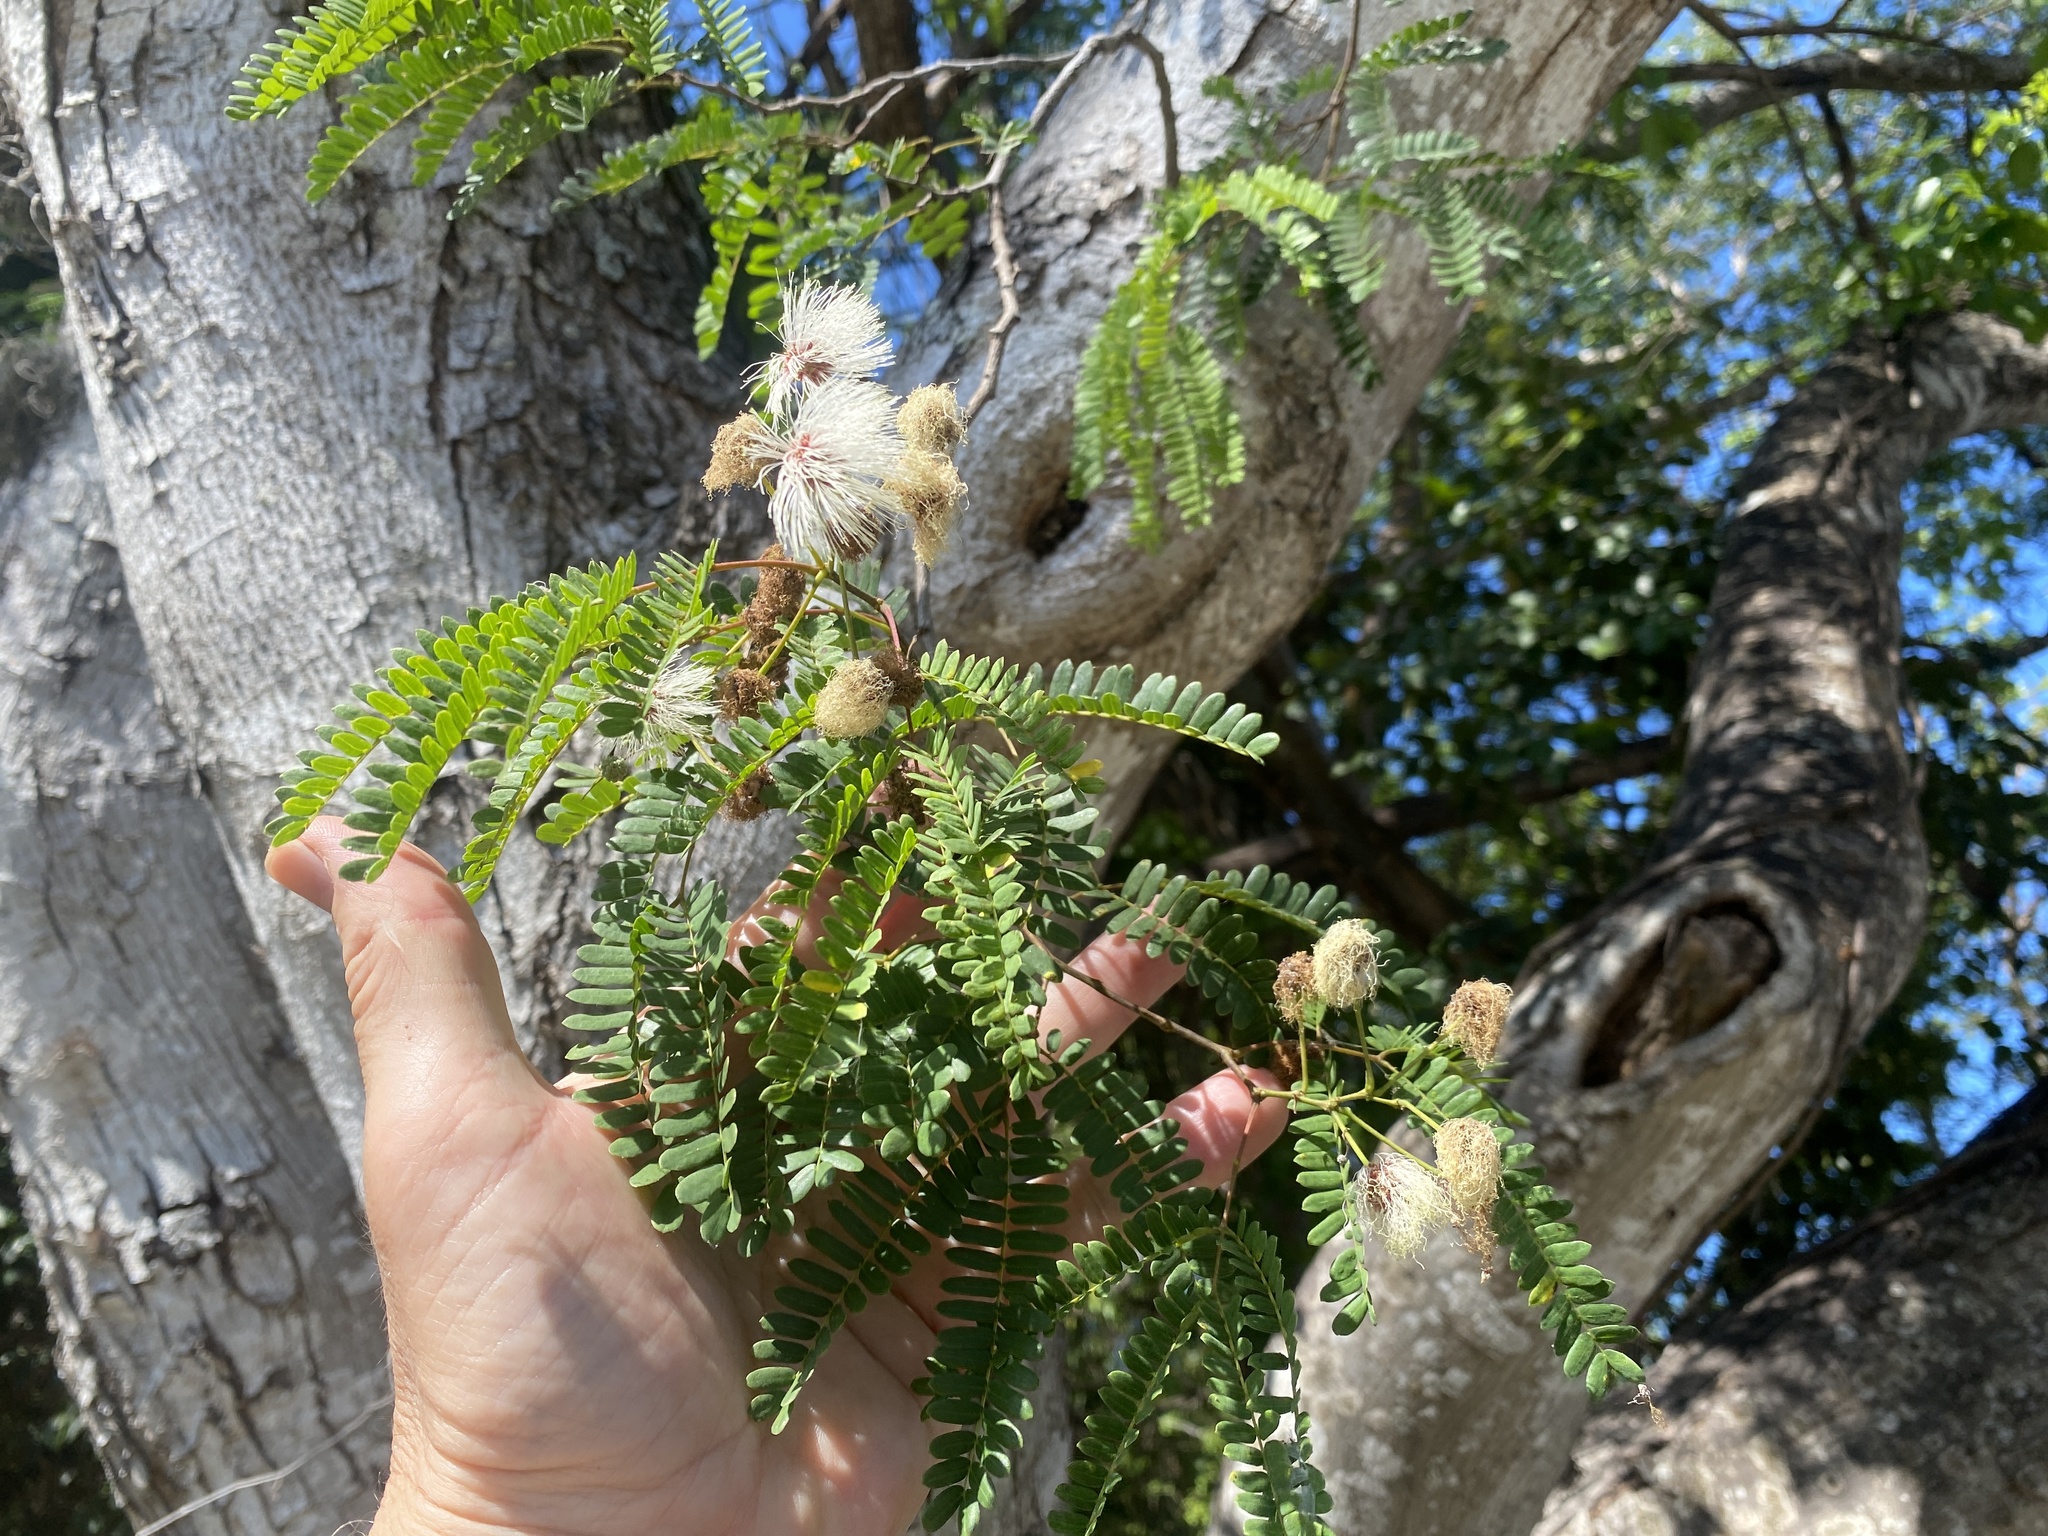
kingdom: Plantae
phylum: Tracheophyta
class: Magnoliopsida
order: Fabales
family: Fabaceae
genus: Lysiloma
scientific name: Lysiloma latisiliquum
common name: Wild tamarind
